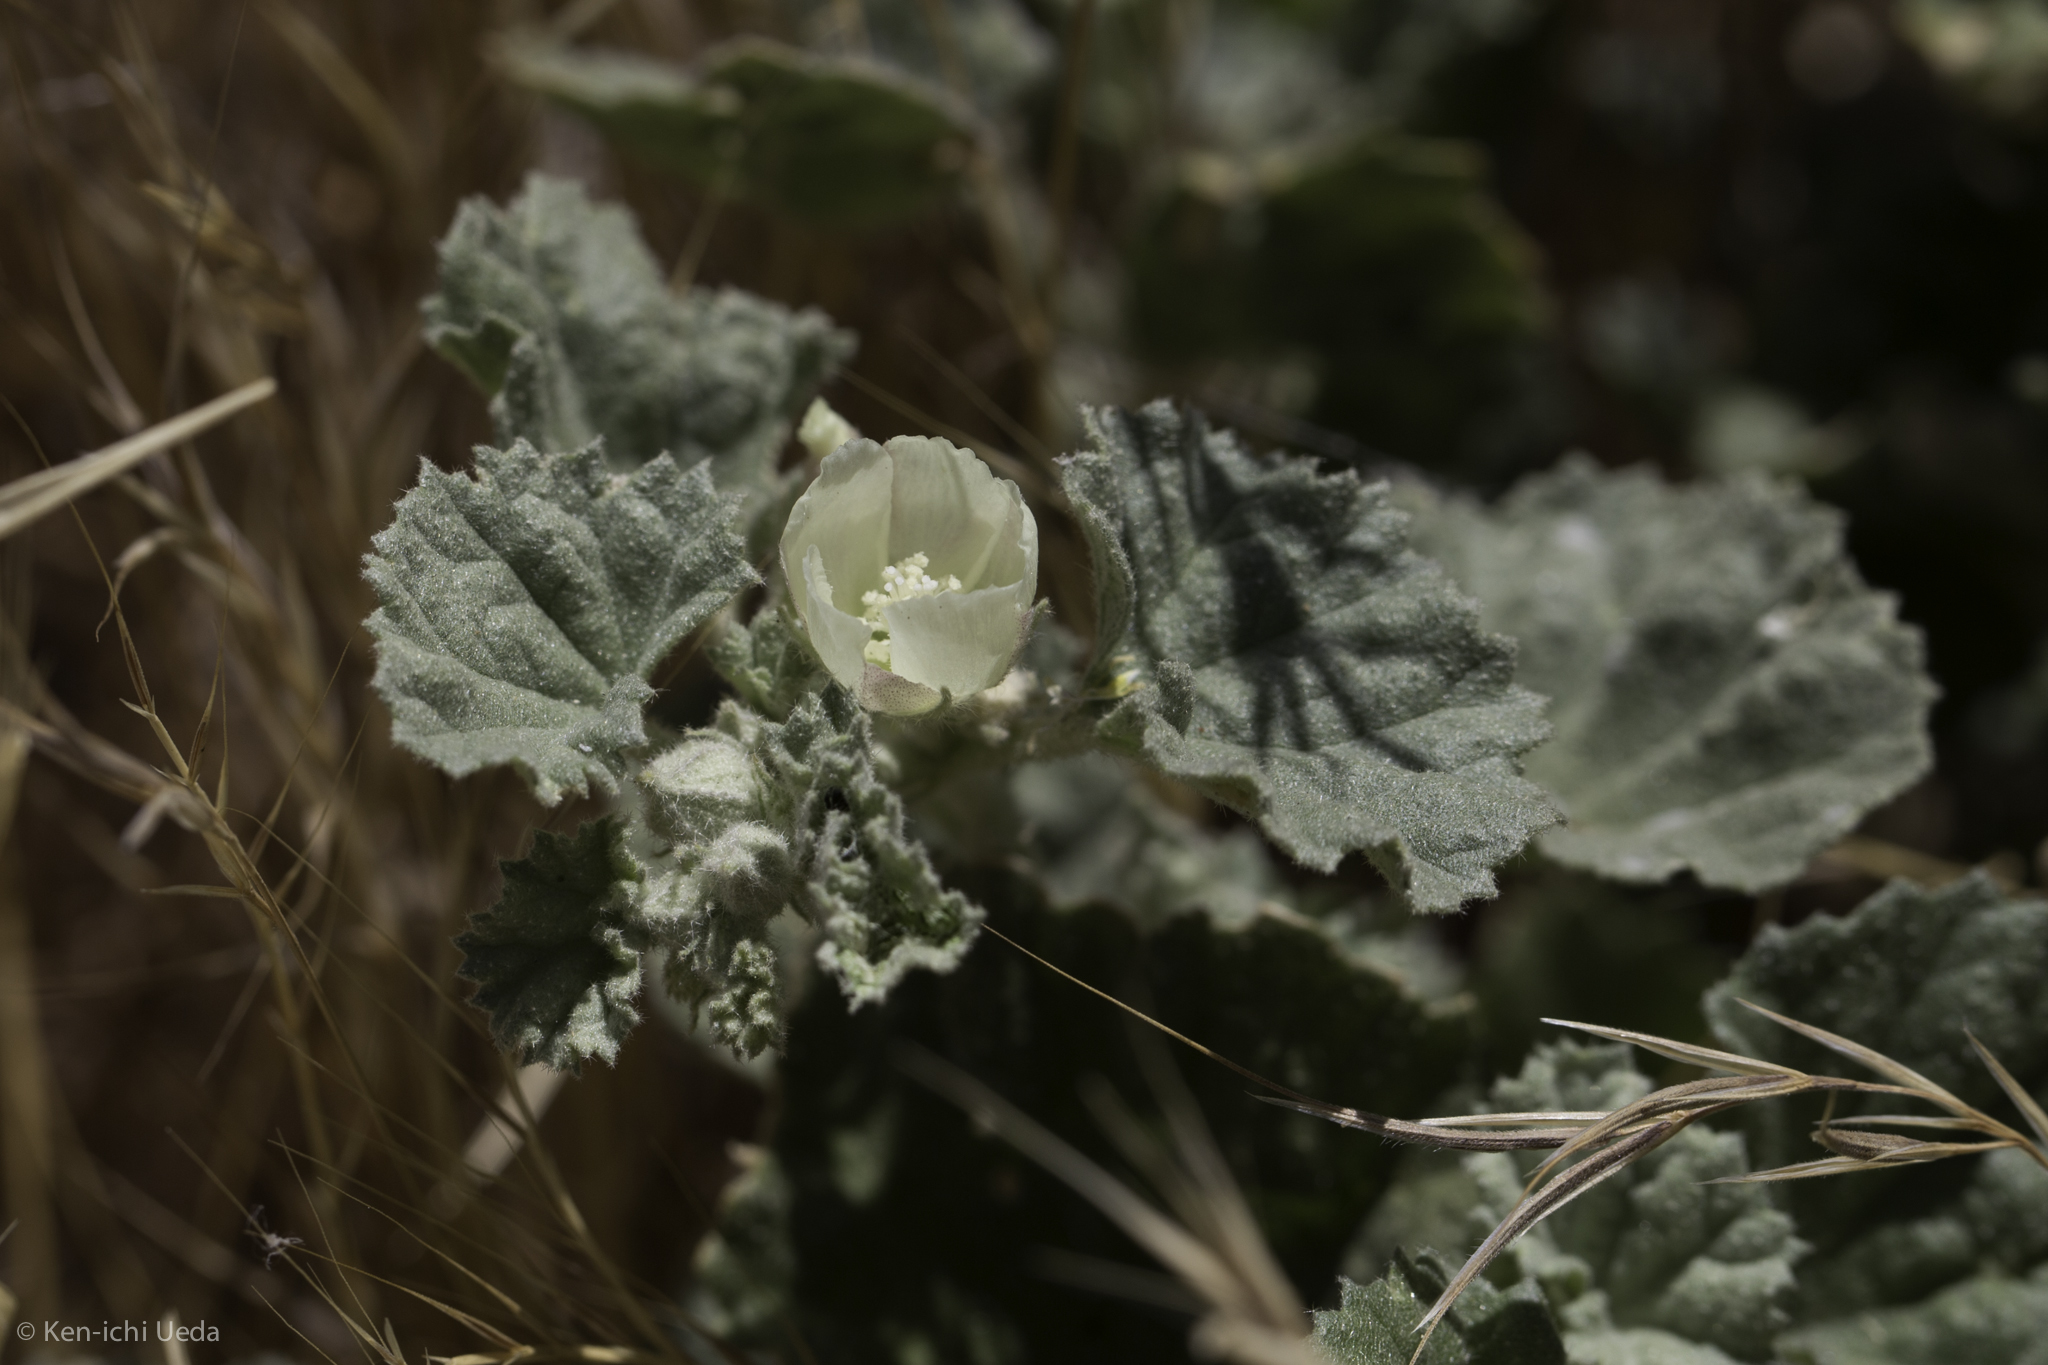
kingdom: Plantae
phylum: Tracheophyta
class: Magnoliopsida
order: Malvales
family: Malvaceae
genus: Malvella
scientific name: Malvella leprosa
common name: Alkali-mallow
